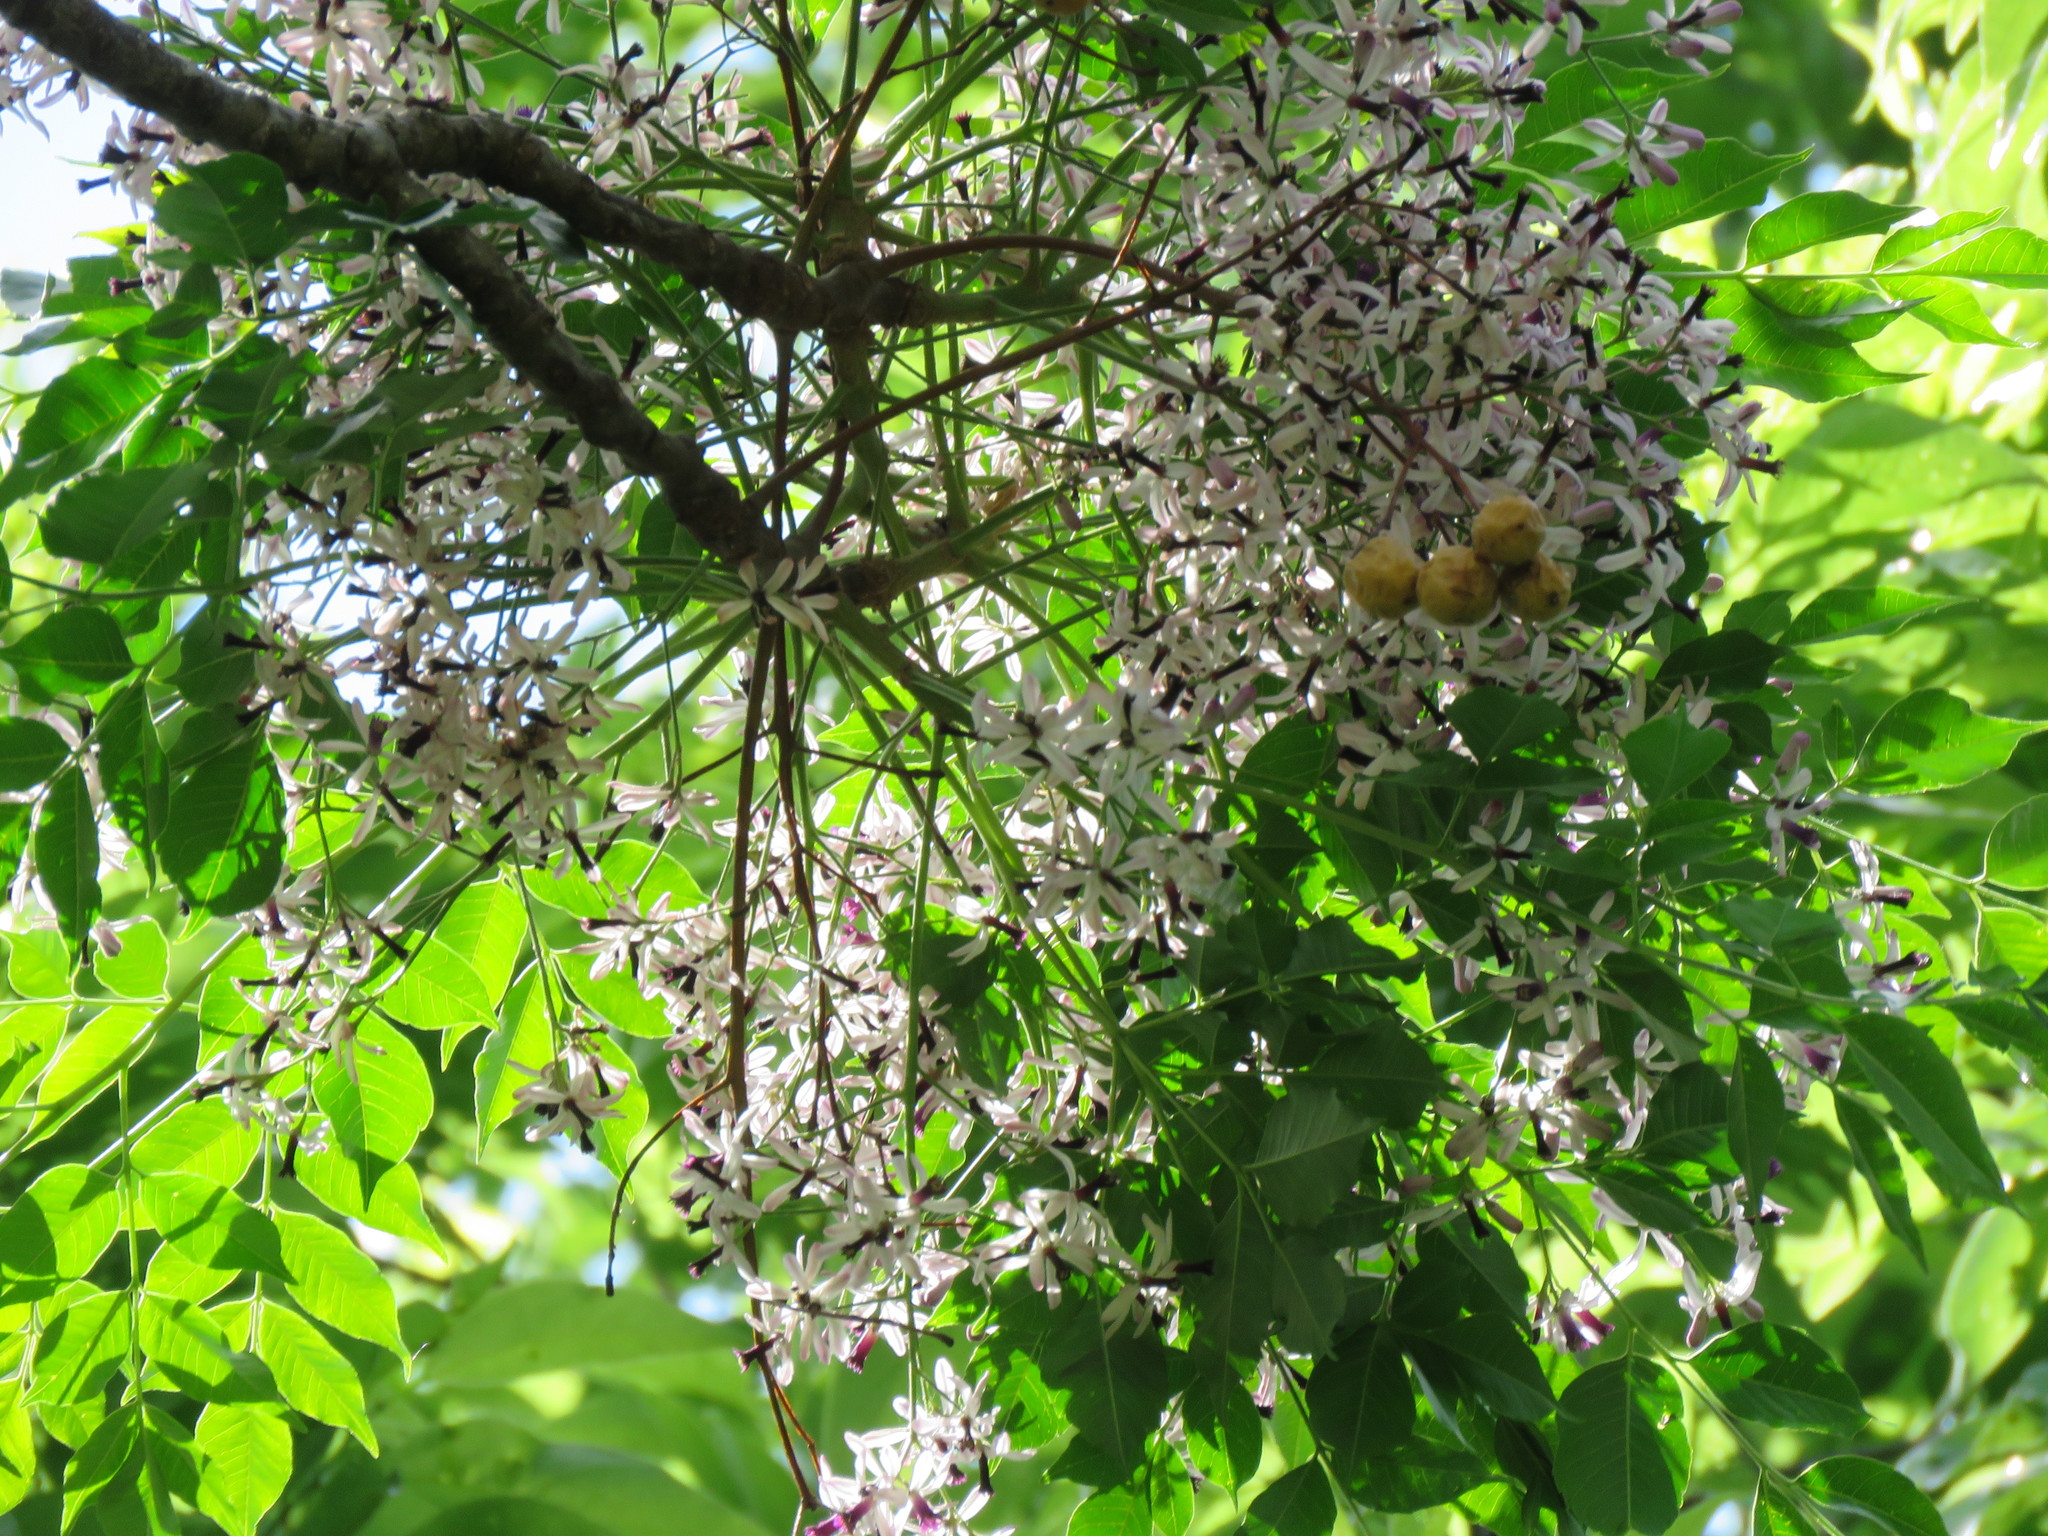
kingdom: Plantae
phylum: Tracheophyta
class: Magnoliopsida
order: Sapindales
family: Meliaceae
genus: Melia
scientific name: Melia azedarach
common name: Chinaberrytree
